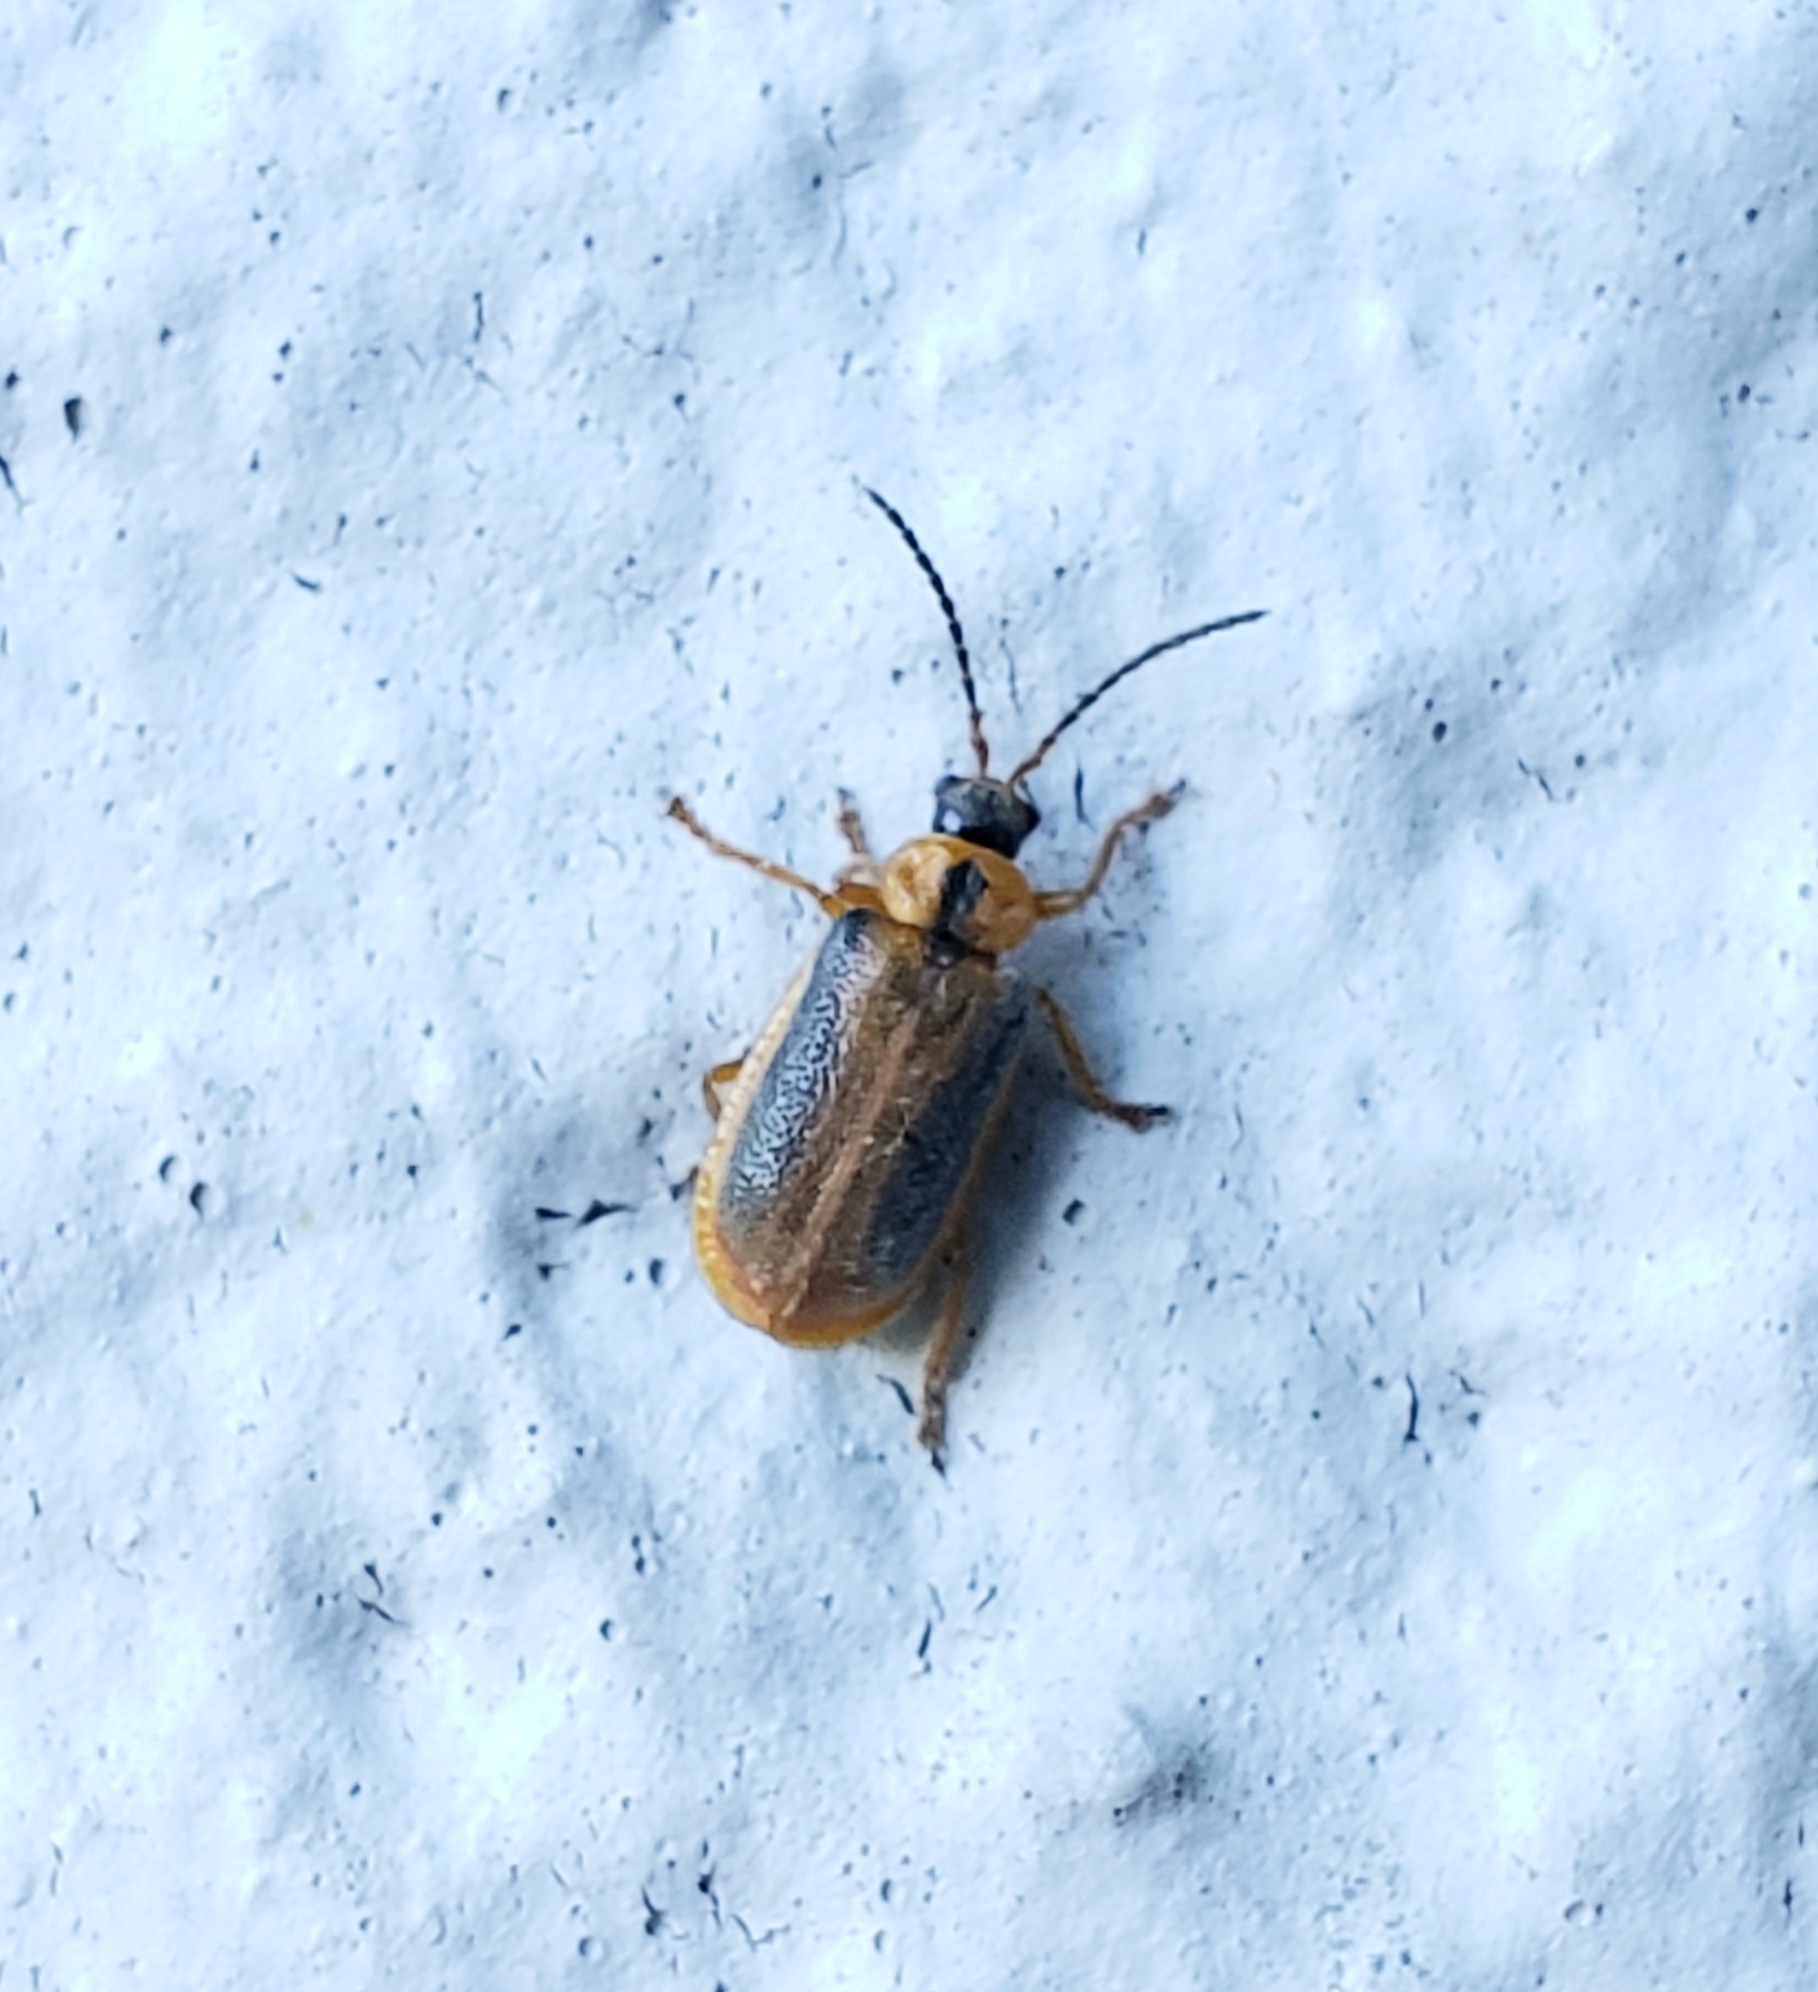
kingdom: Animalia
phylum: Arthropoda
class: Insecta
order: Coleoptera
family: Chrysomelidae
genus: Neogalerucella
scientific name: Neogalerucella calmariensis
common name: Black-margined loosestrife beetle
